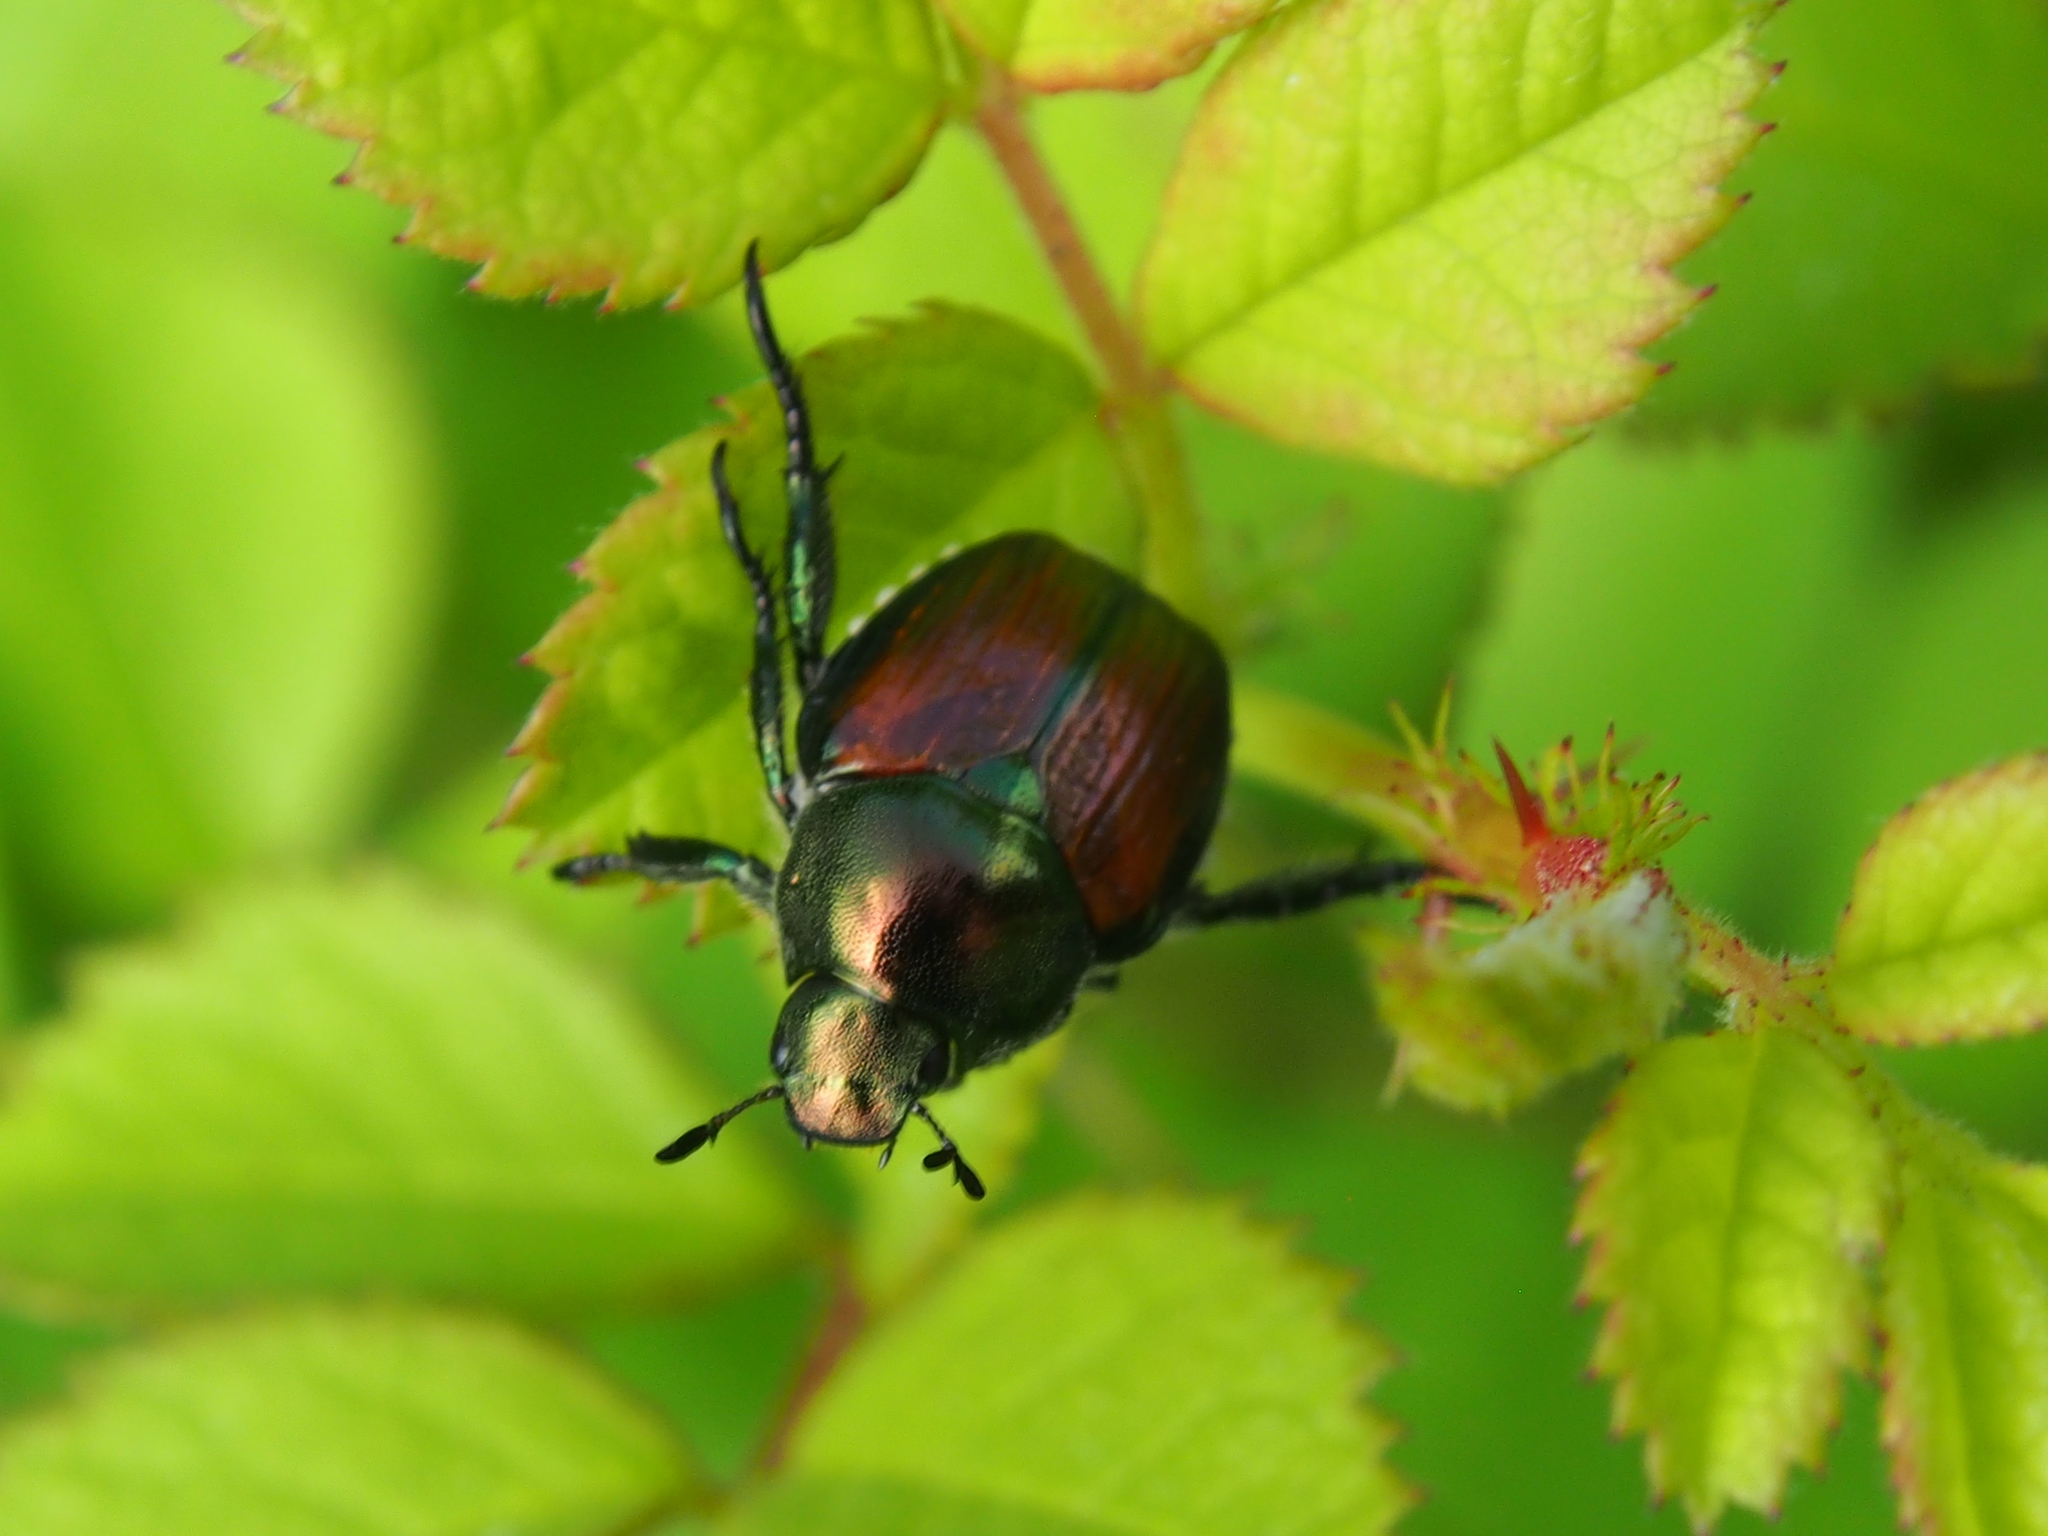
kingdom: Animalia
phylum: Arthropoda
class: Insecta
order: Coleoptera
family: Scarabaeidae
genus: Popillia
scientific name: Popillia japonica
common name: Japanese beetle
